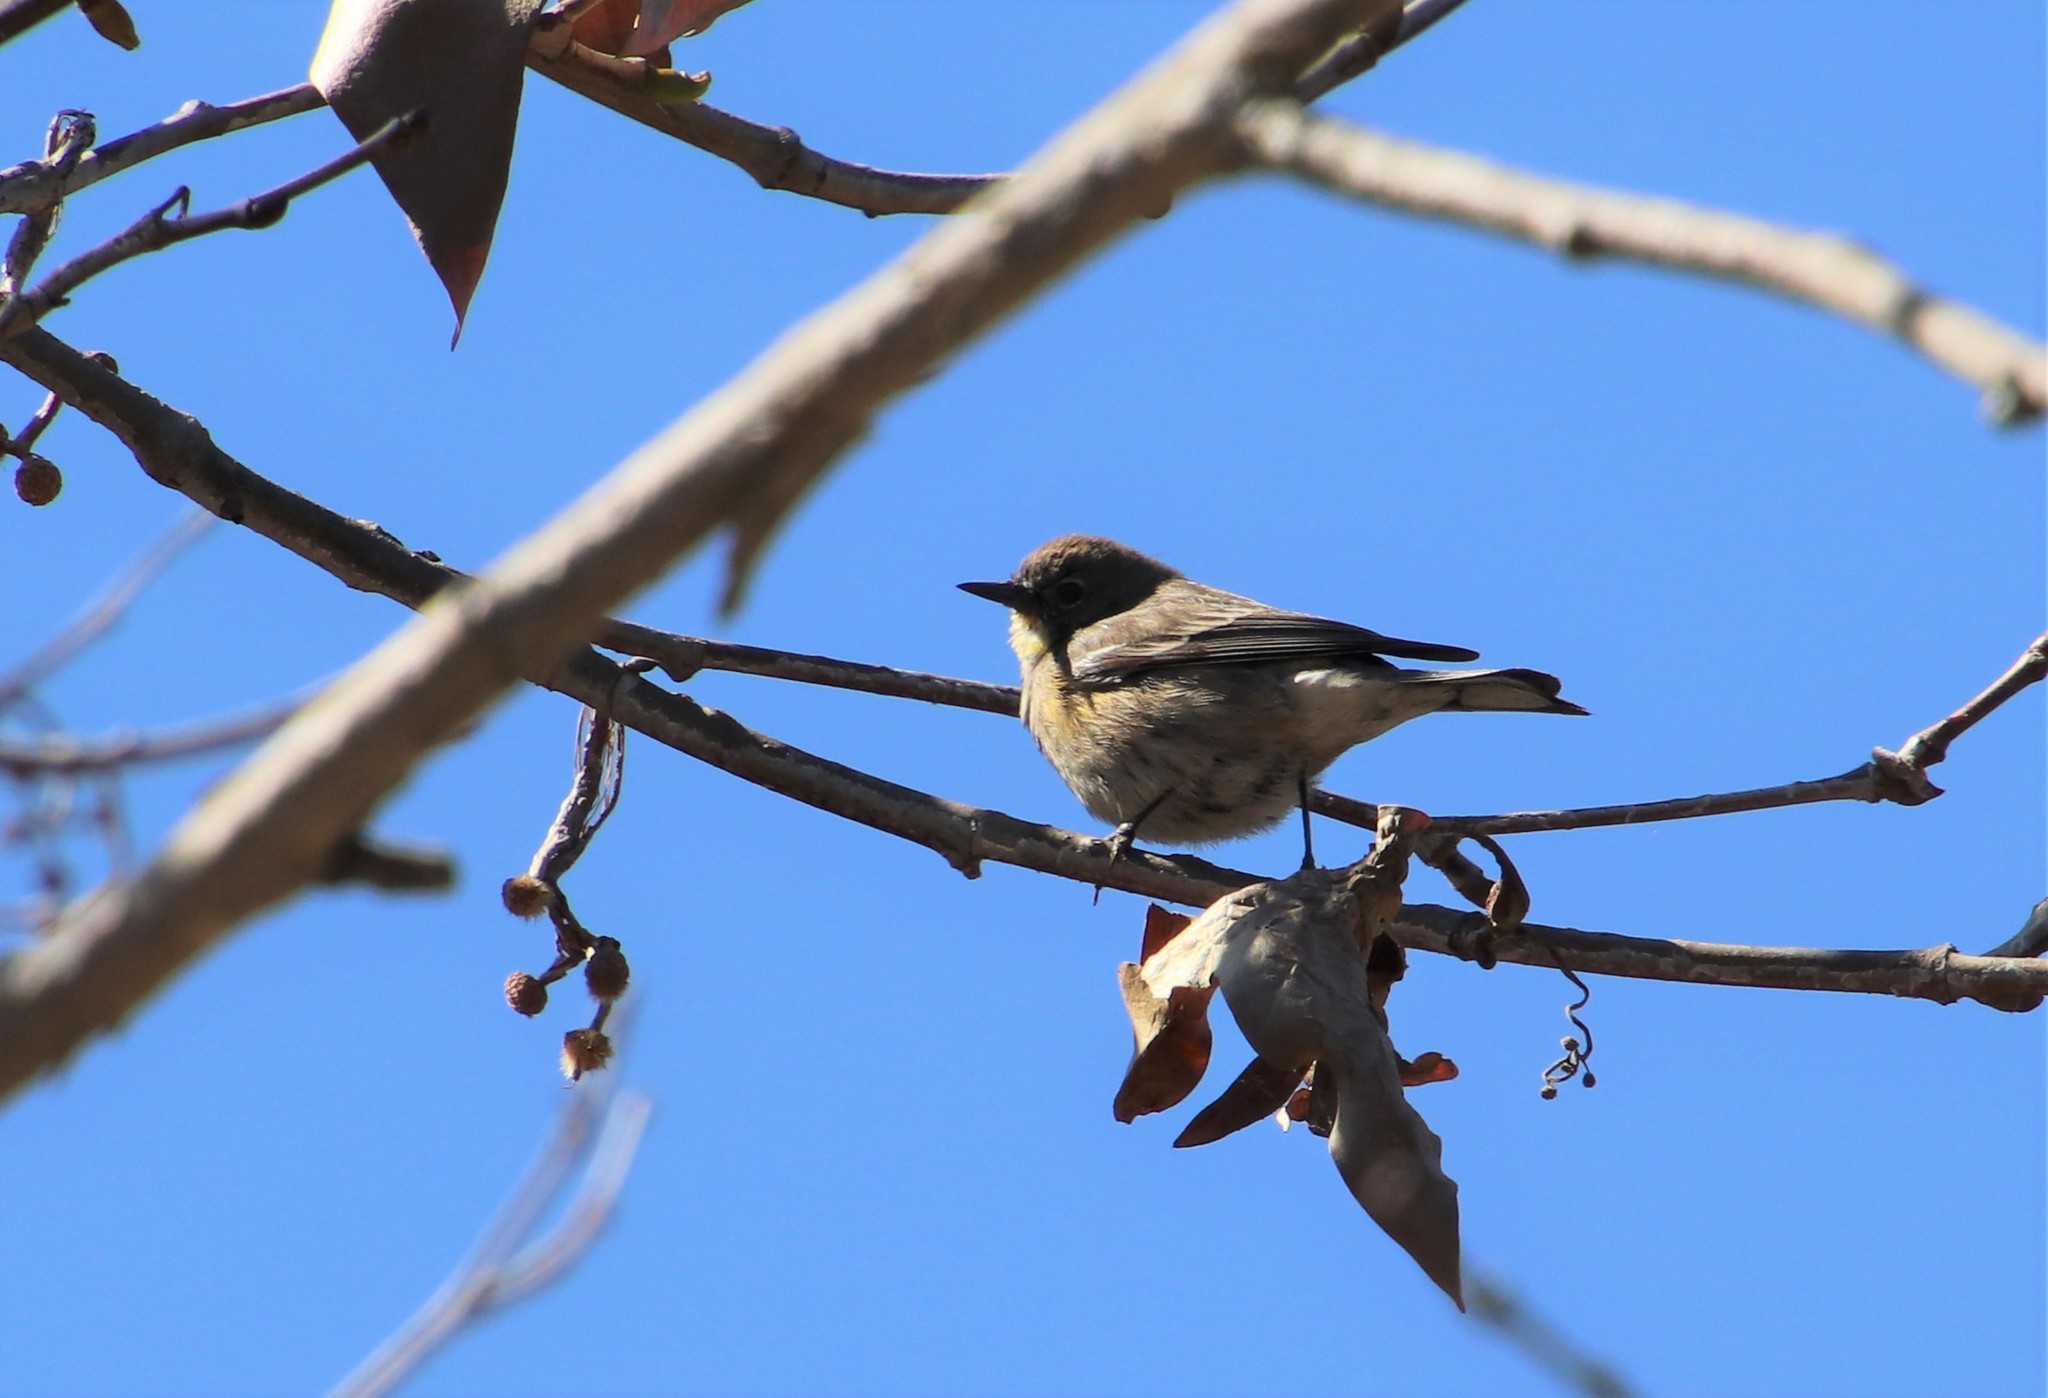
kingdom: Animalia
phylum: Chordata
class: Aves
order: Passeriformes
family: Parulidae
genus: Setophaga
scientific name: Setophaga coronata
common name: Myrtle warbler
